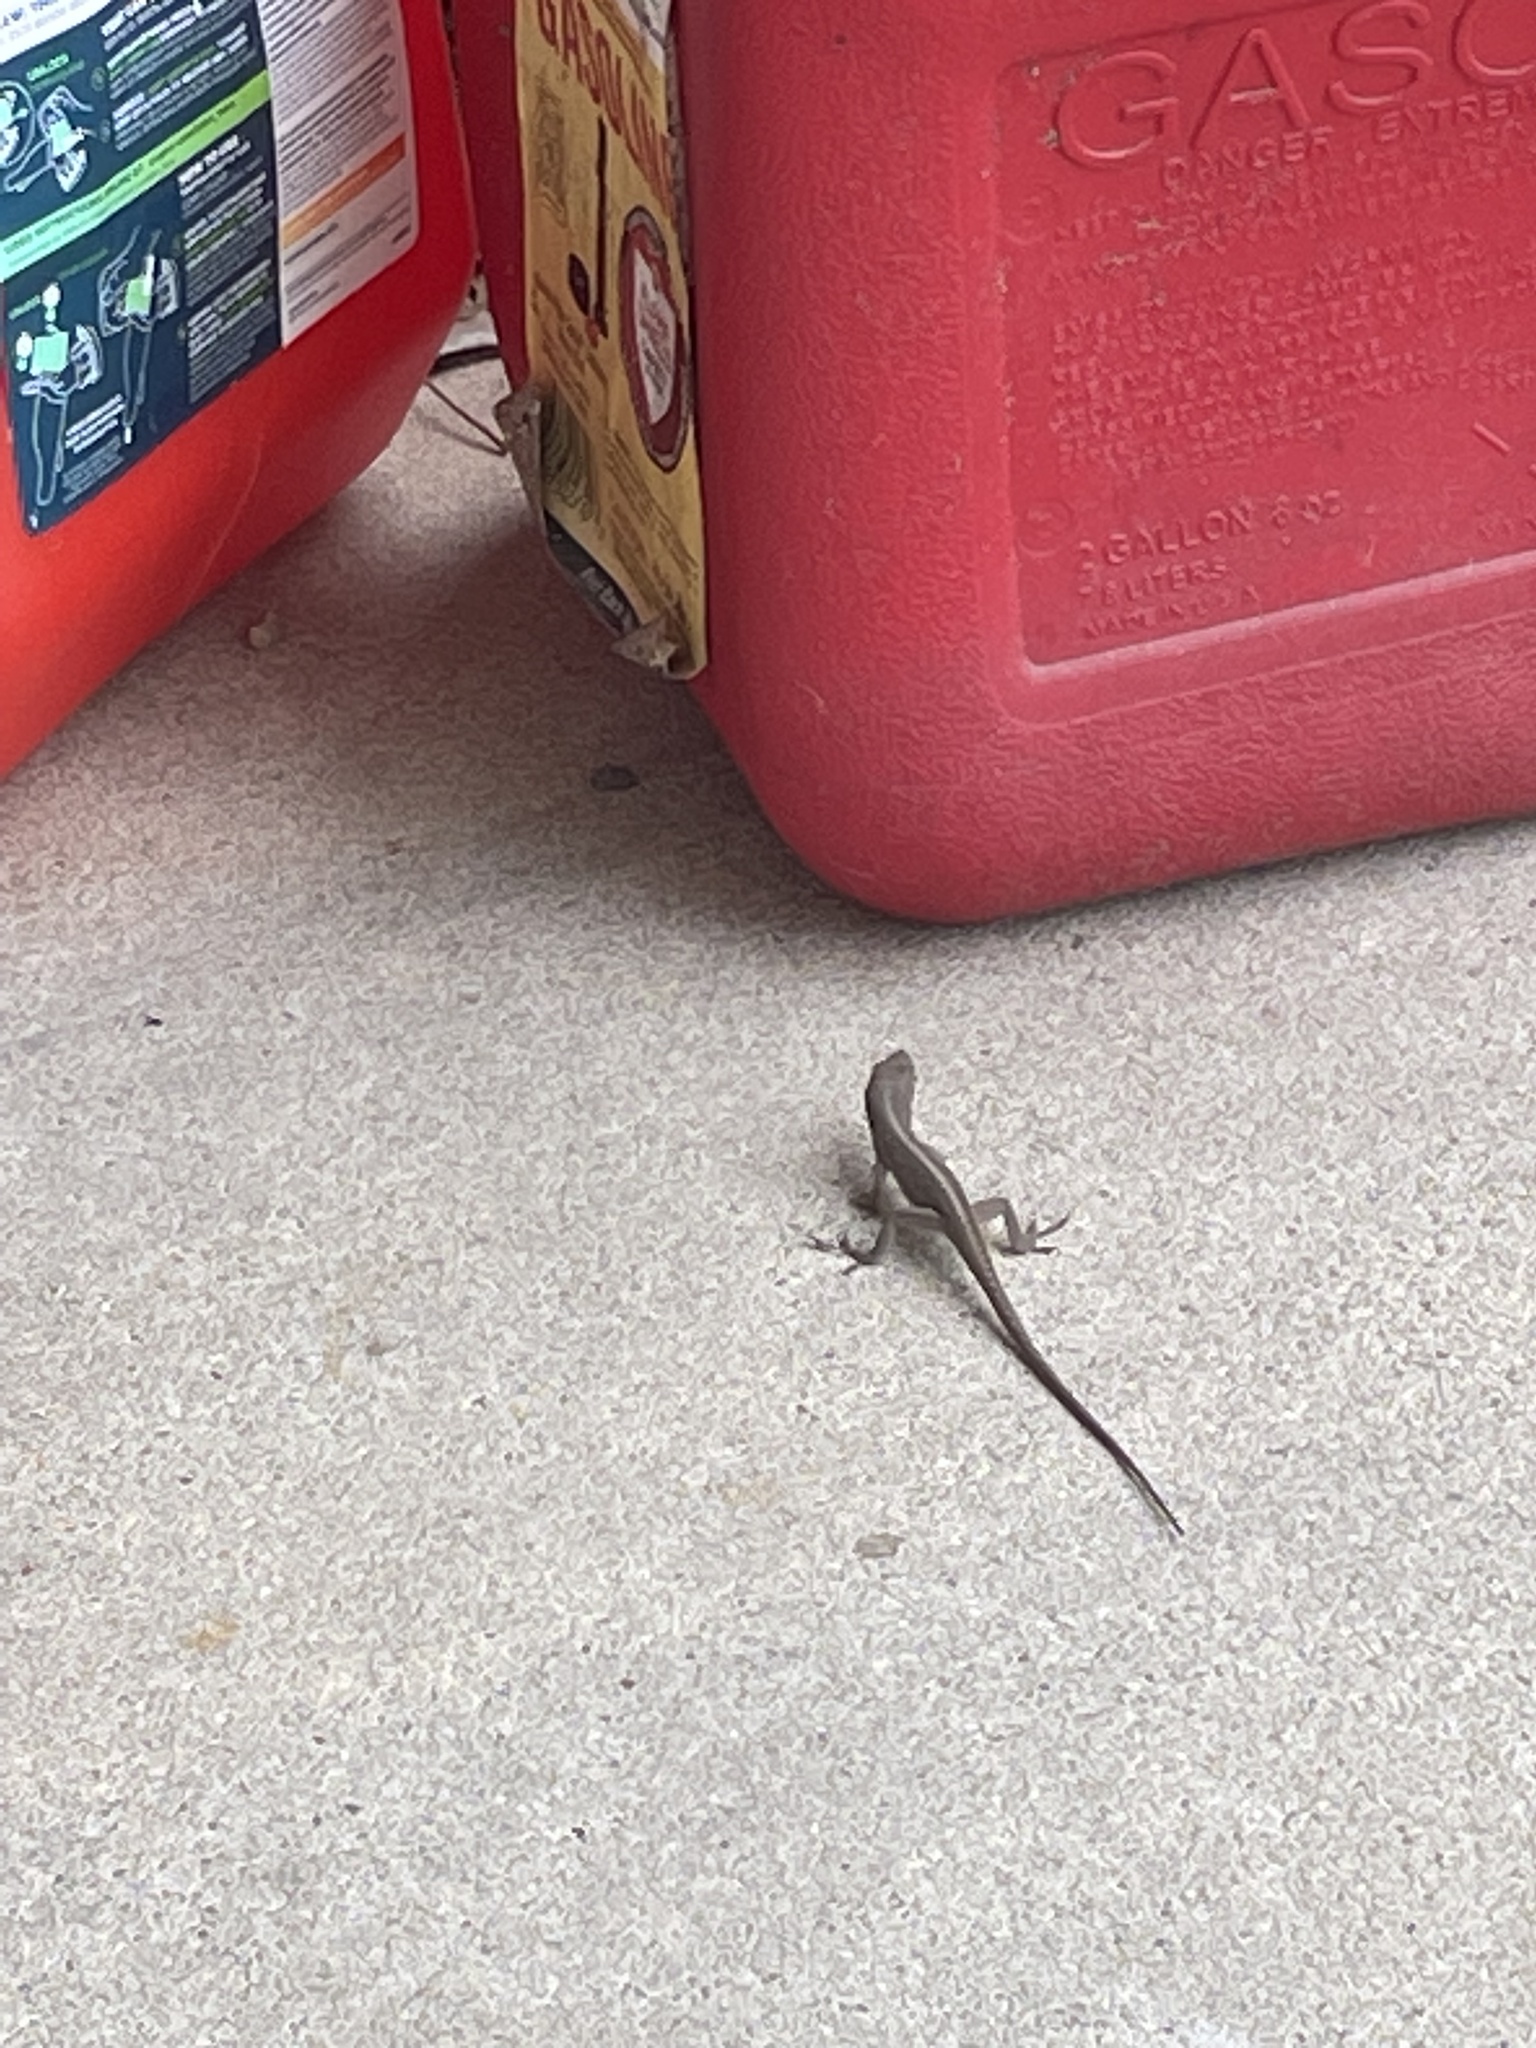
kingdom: Animalia
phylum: Chordata
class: Squamata
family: Dactyloidae
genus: Anolis
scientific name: Anolis carolinensis
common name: Green anole
